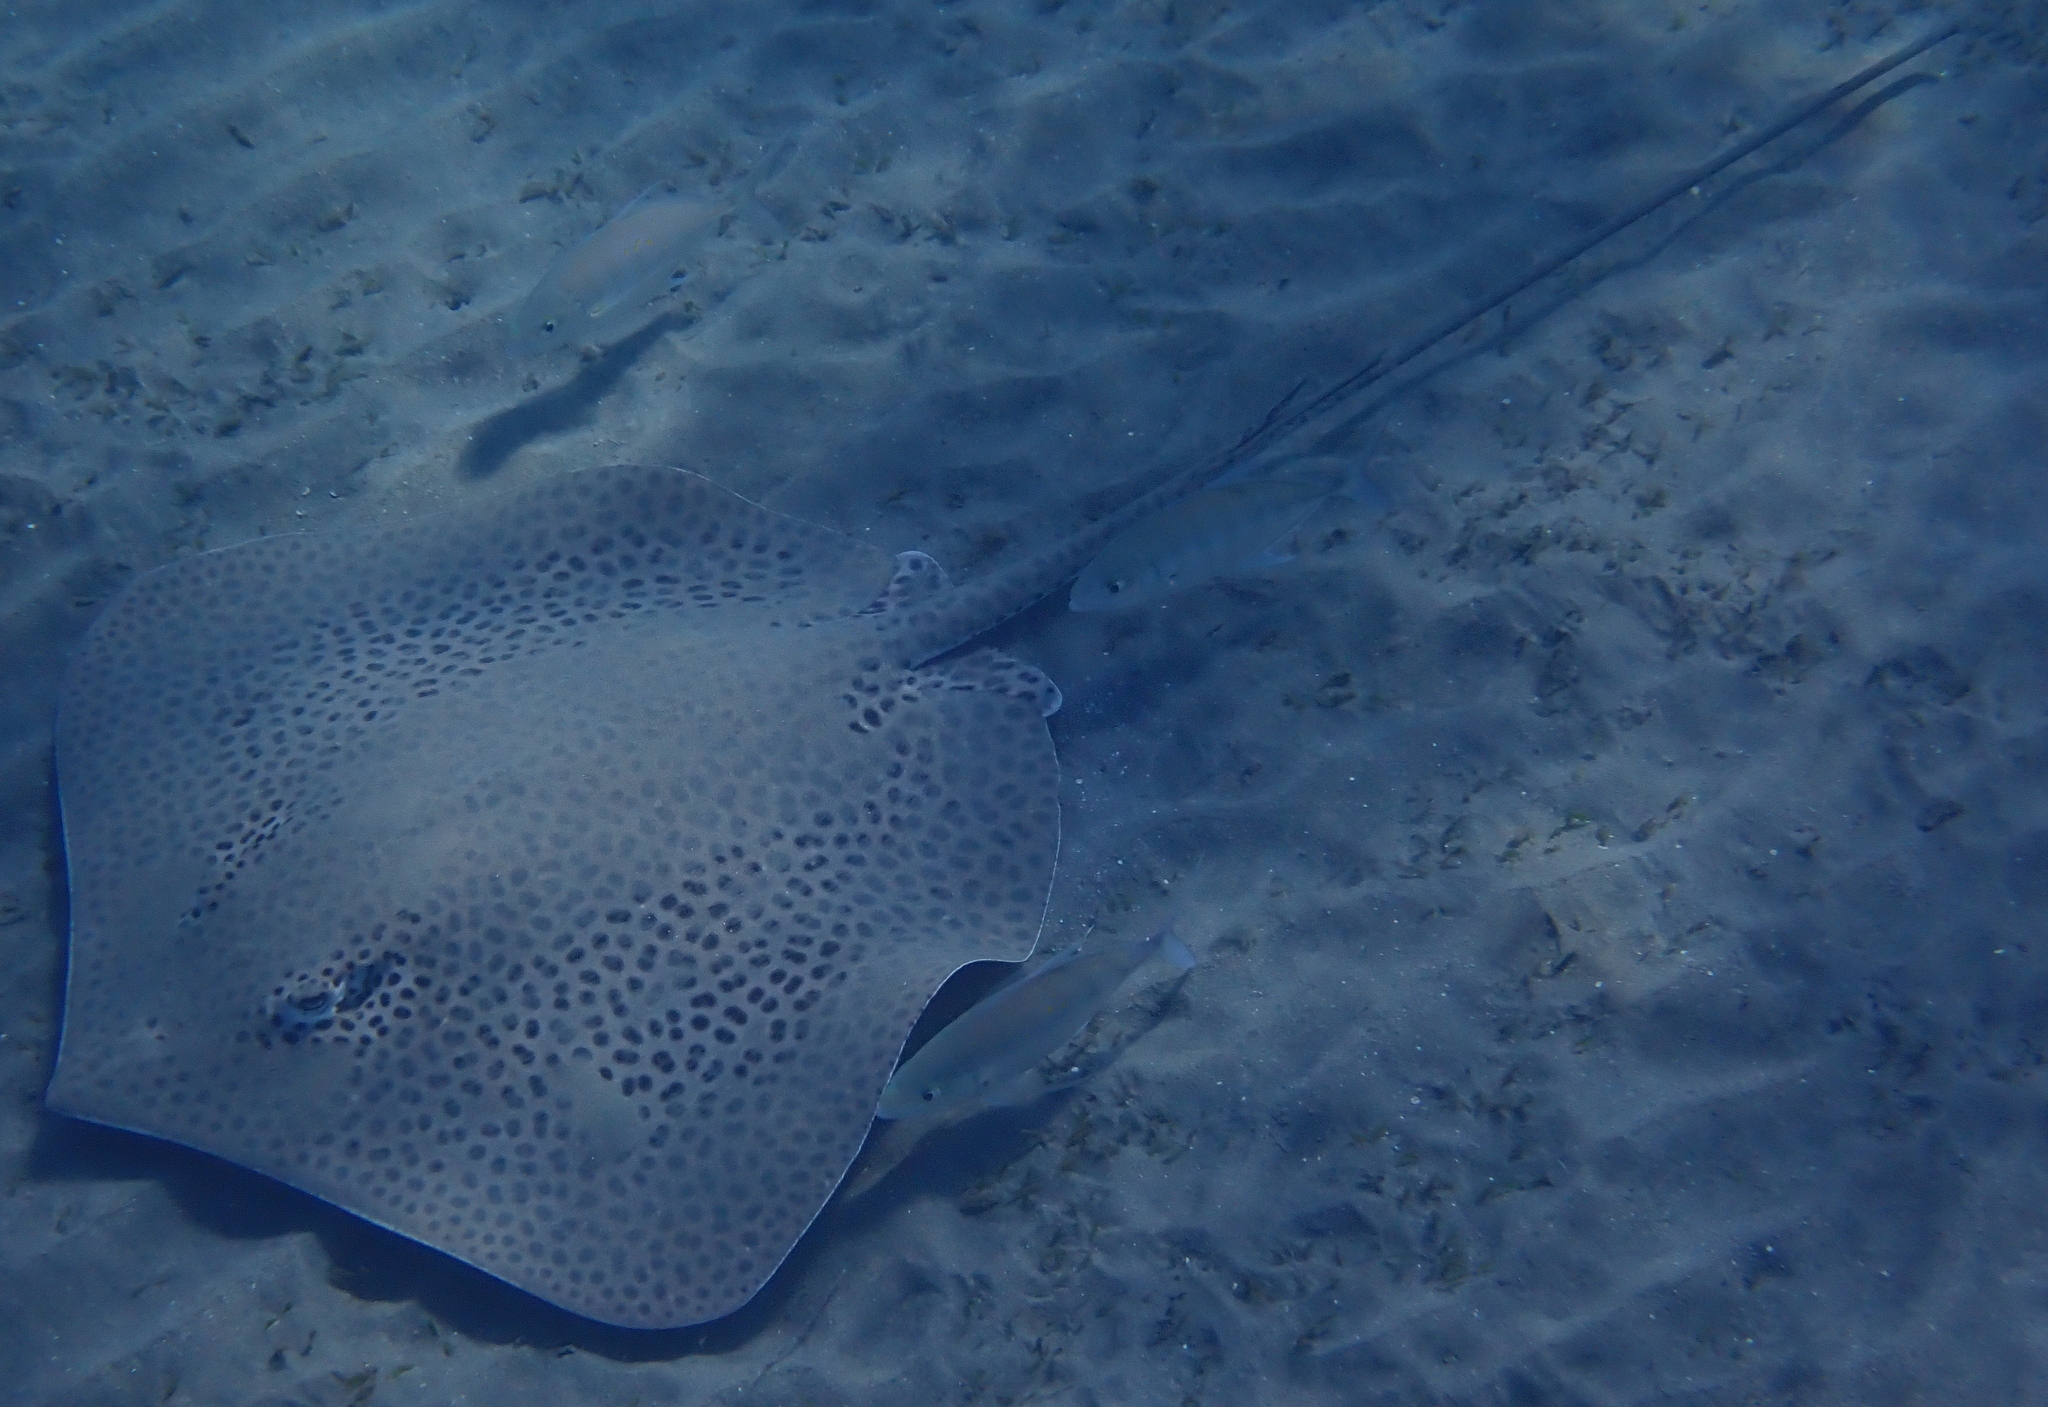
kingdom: Animalia
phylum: Chordata
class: Elasmobranchii
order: Myliobatiformes
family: Dasyatidae
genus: Himantura
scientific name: Himantura uarnak
